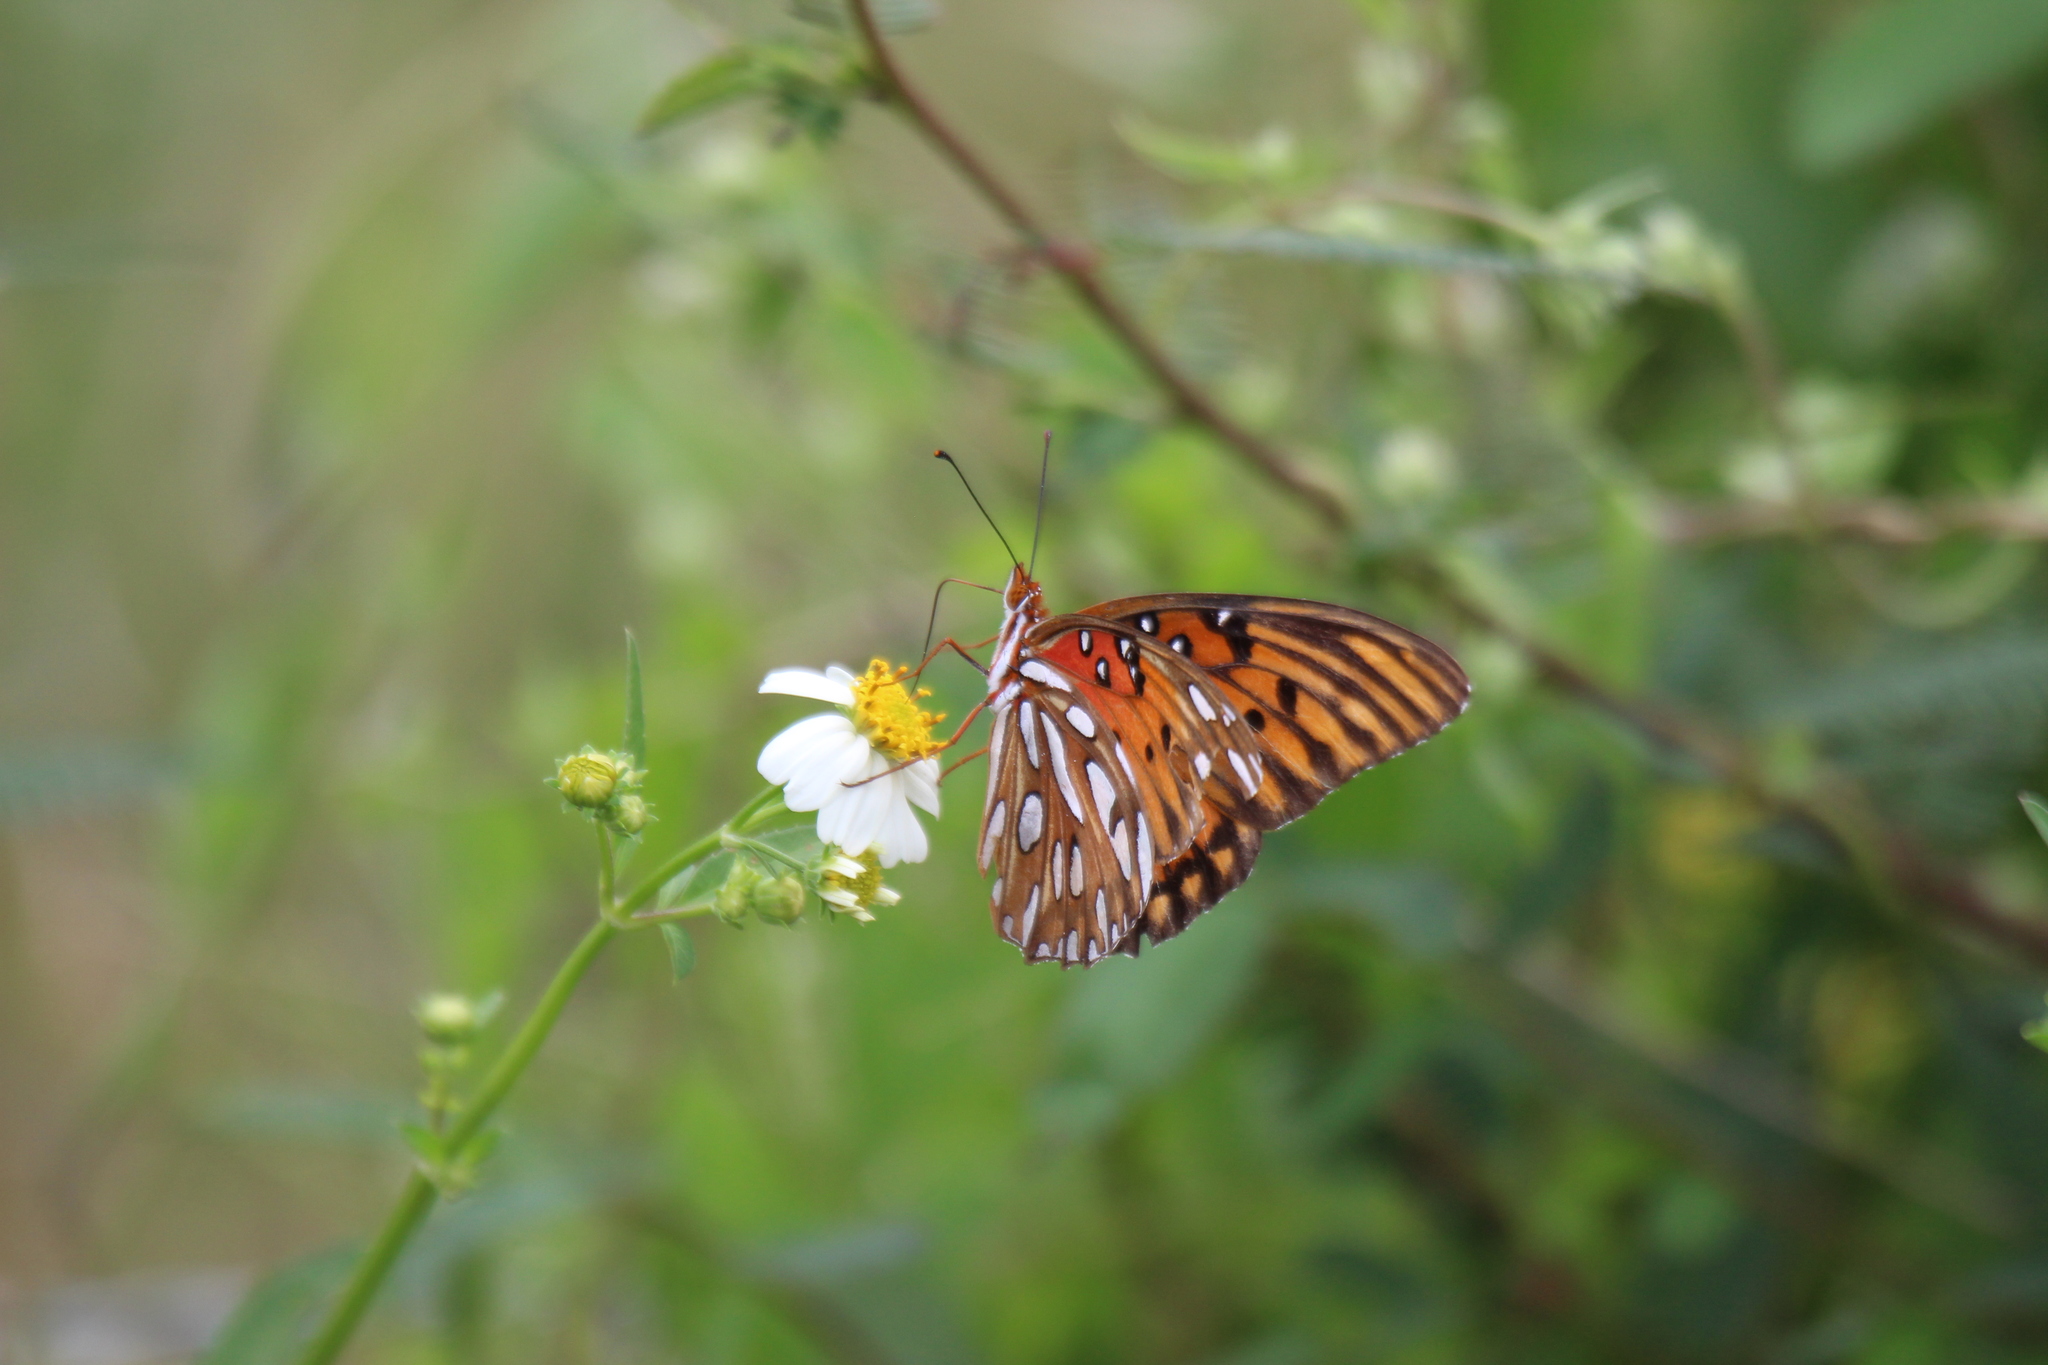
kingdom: Animalia
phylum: Arthropoda
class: Insecta
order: Lepidoptera
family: Nymphalidae
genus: Dione
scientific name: Dione vanillae
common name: Gulf fritillary
